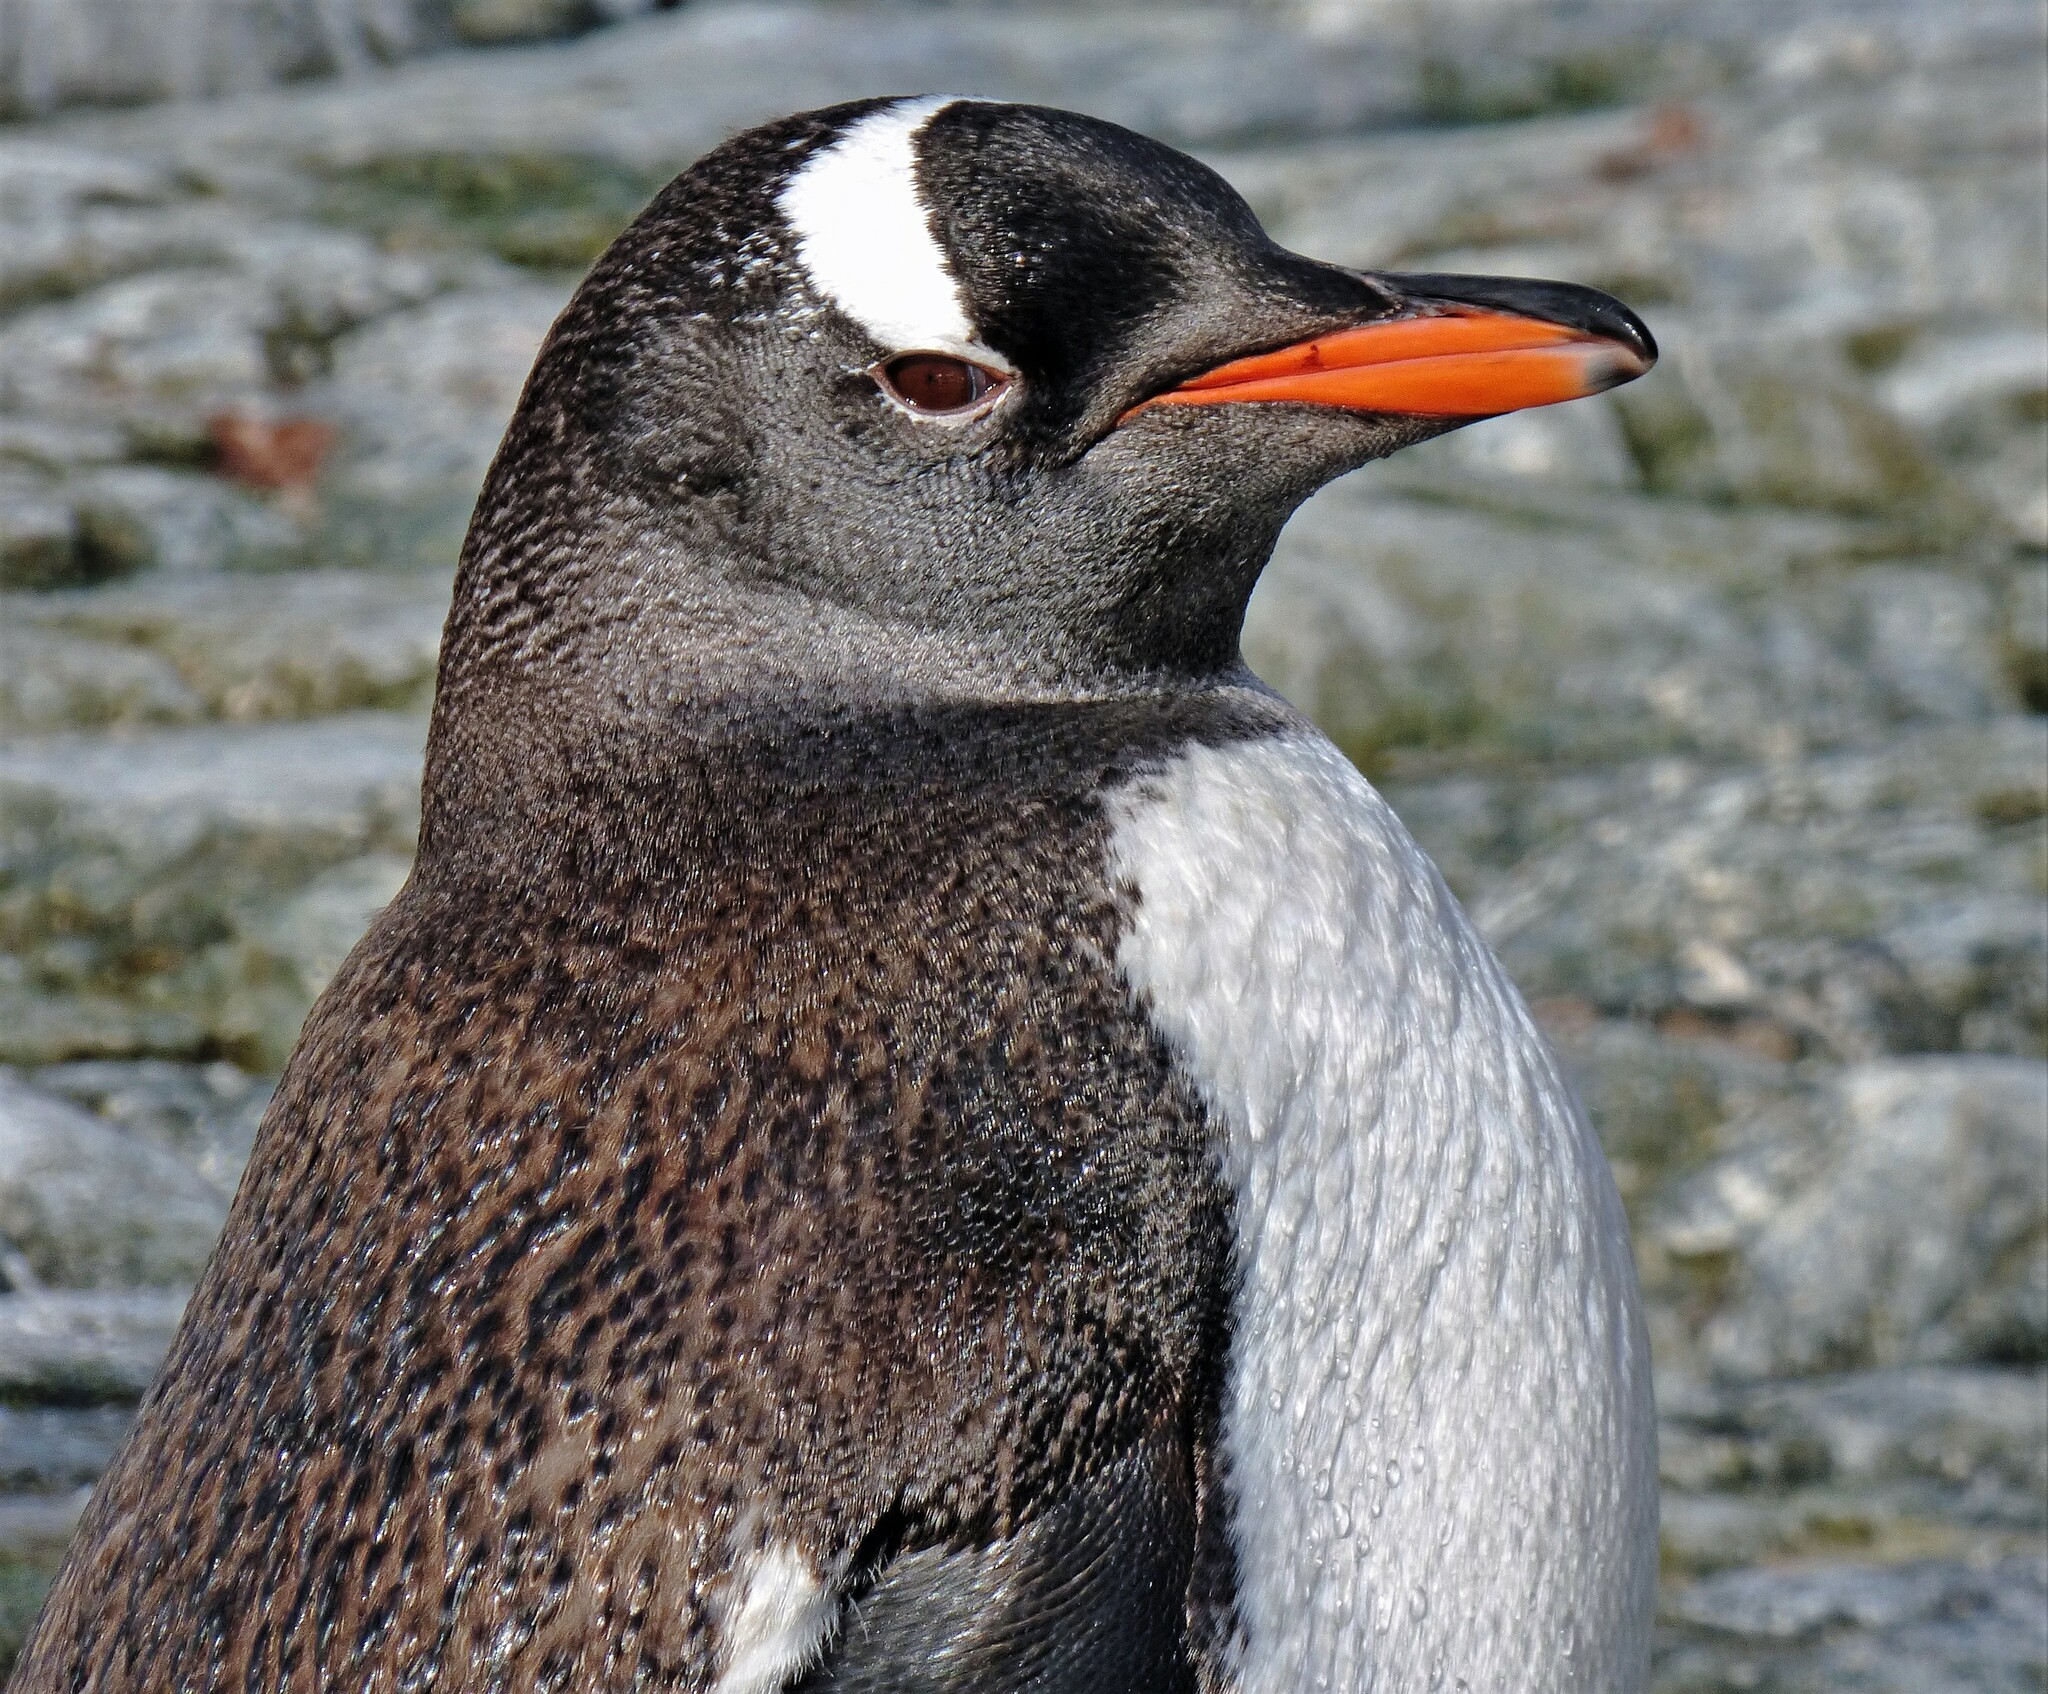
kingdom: Animalia
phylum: Chordata
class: Aves
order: Sphenisciformes
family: Spheniscidae
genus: Pygoscelis
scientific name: Pygoscelis papua
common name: Gentoo penguin
